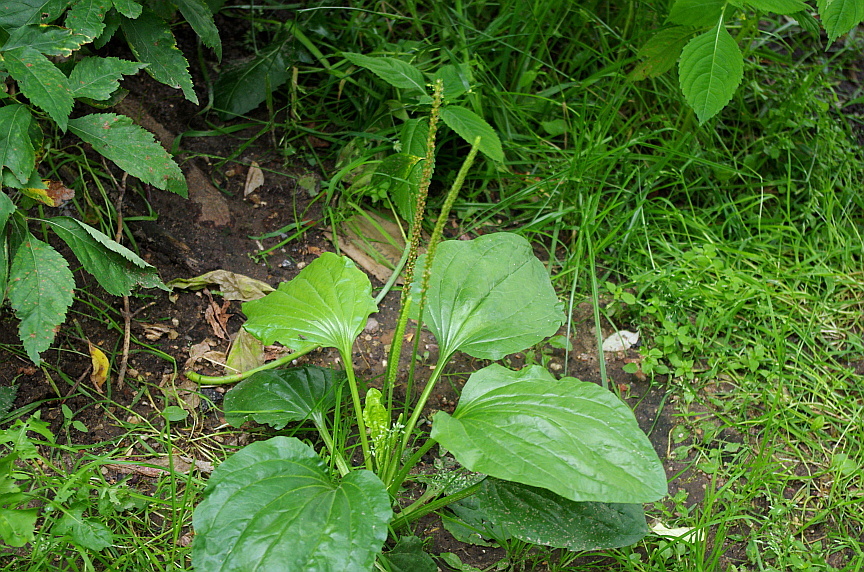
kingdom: Plantae
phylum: Tracheophyta
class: Magnoliopsida
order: Lamiales
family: Plantaginaceae
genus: Plantago
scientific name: Plantago major
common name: Common plantain
